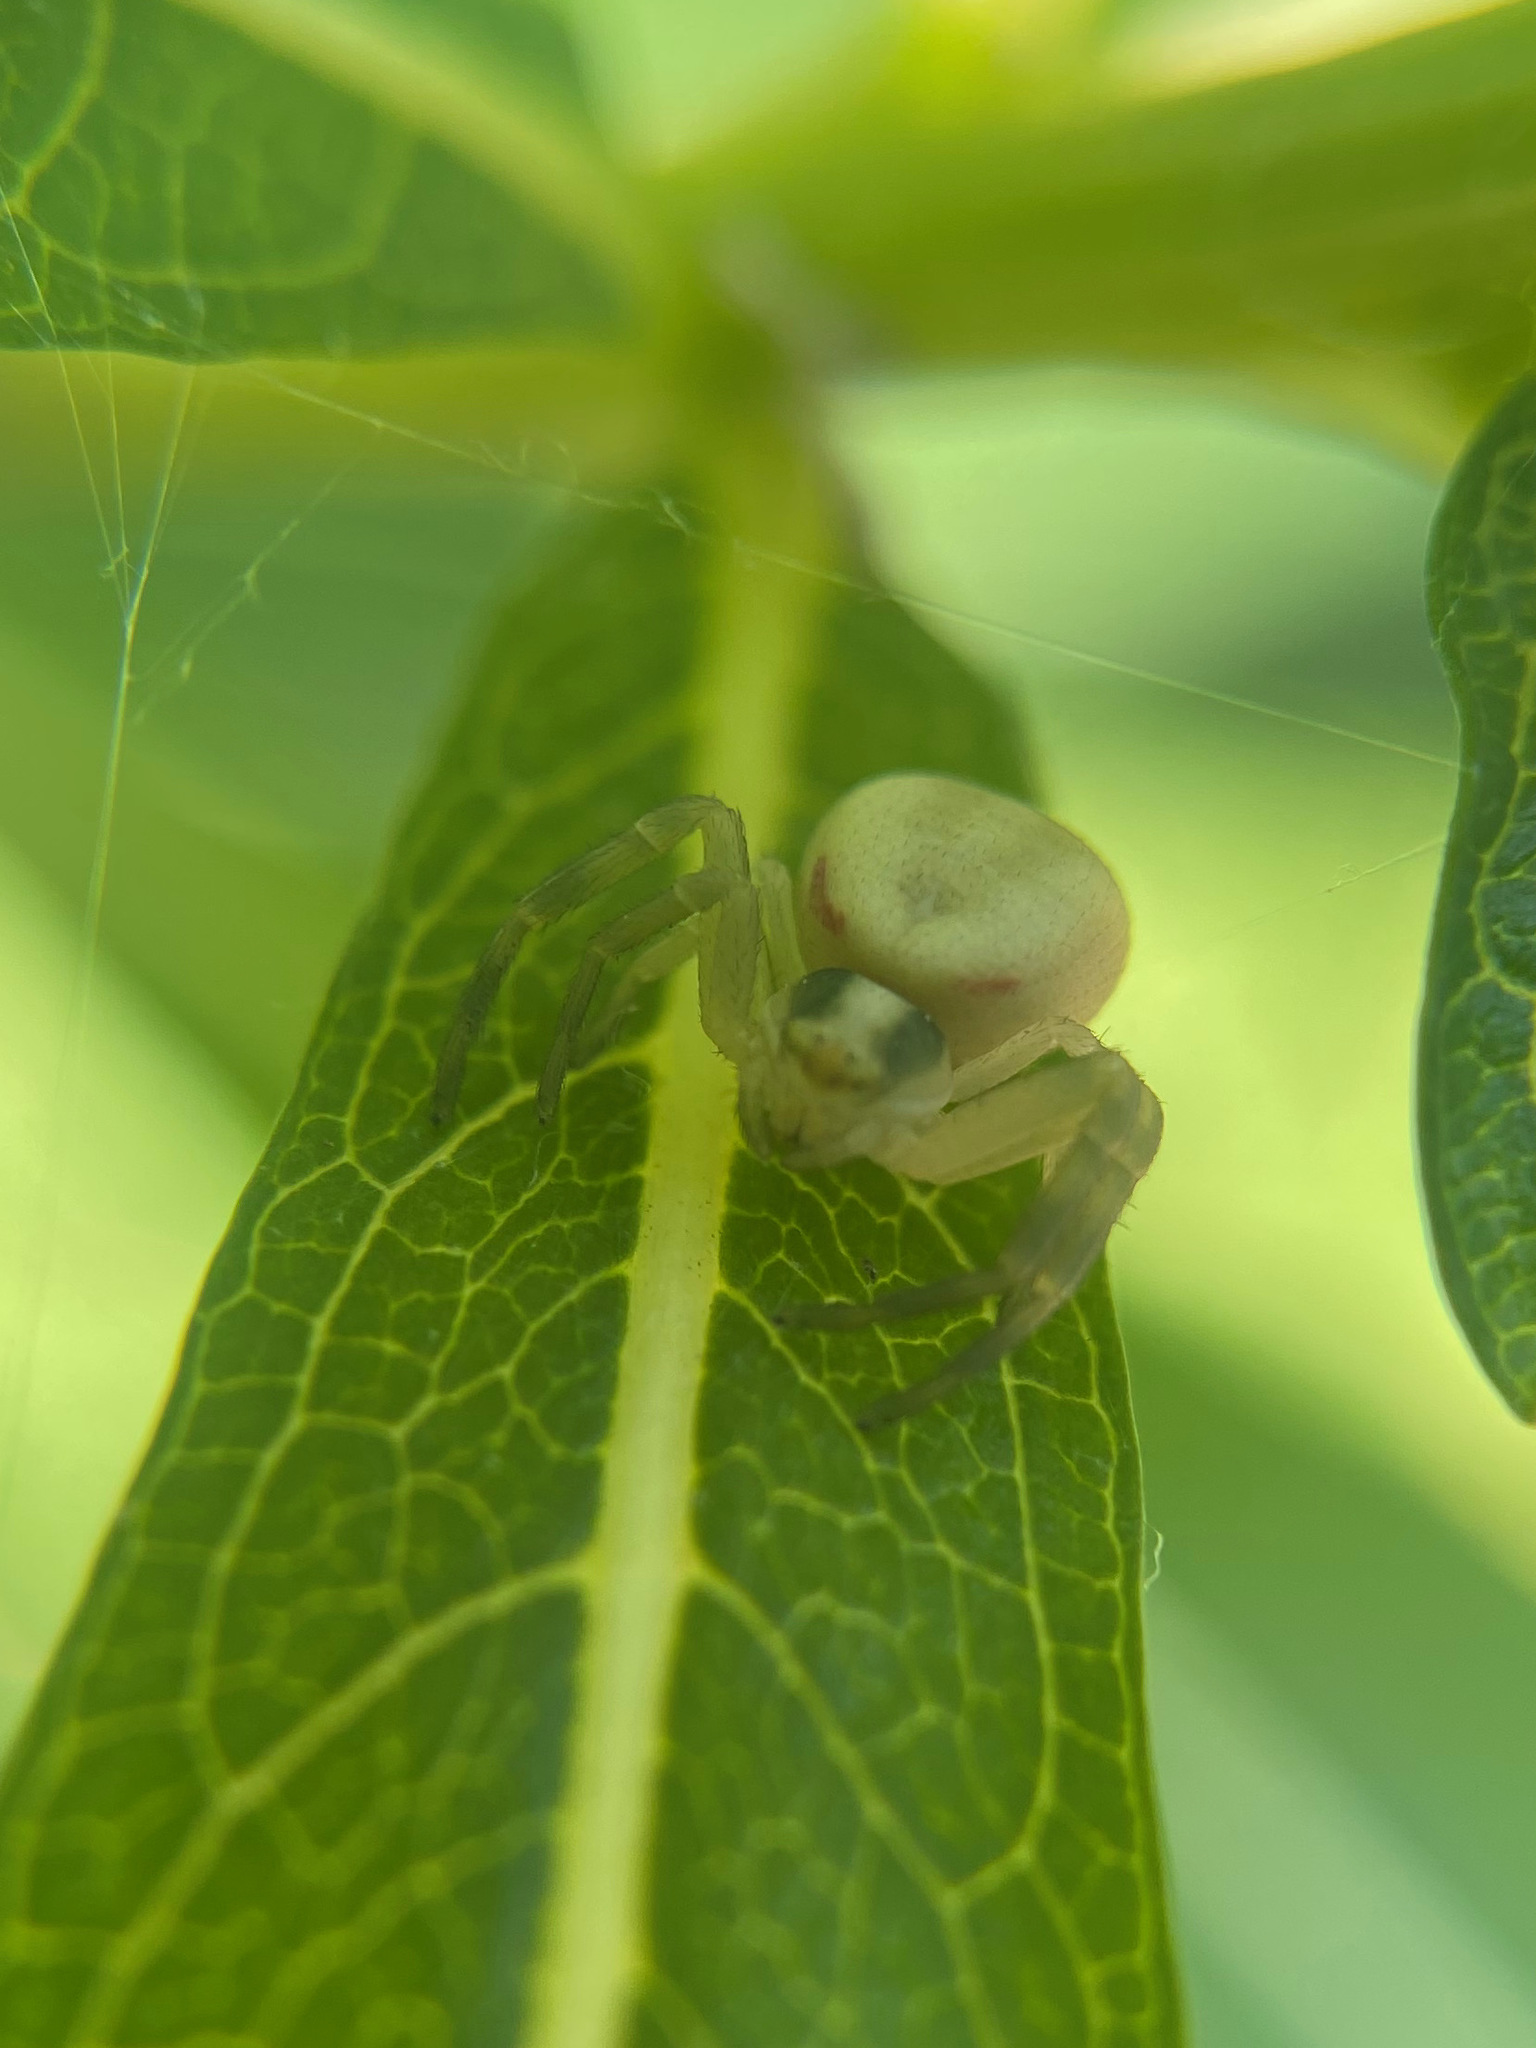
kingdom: Animalia
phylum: Arthropoda
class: Arachnida
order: Araneae
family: Thomisidae
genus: Misumena
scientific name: Misumena vatia
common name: Goldenrod crab spider
